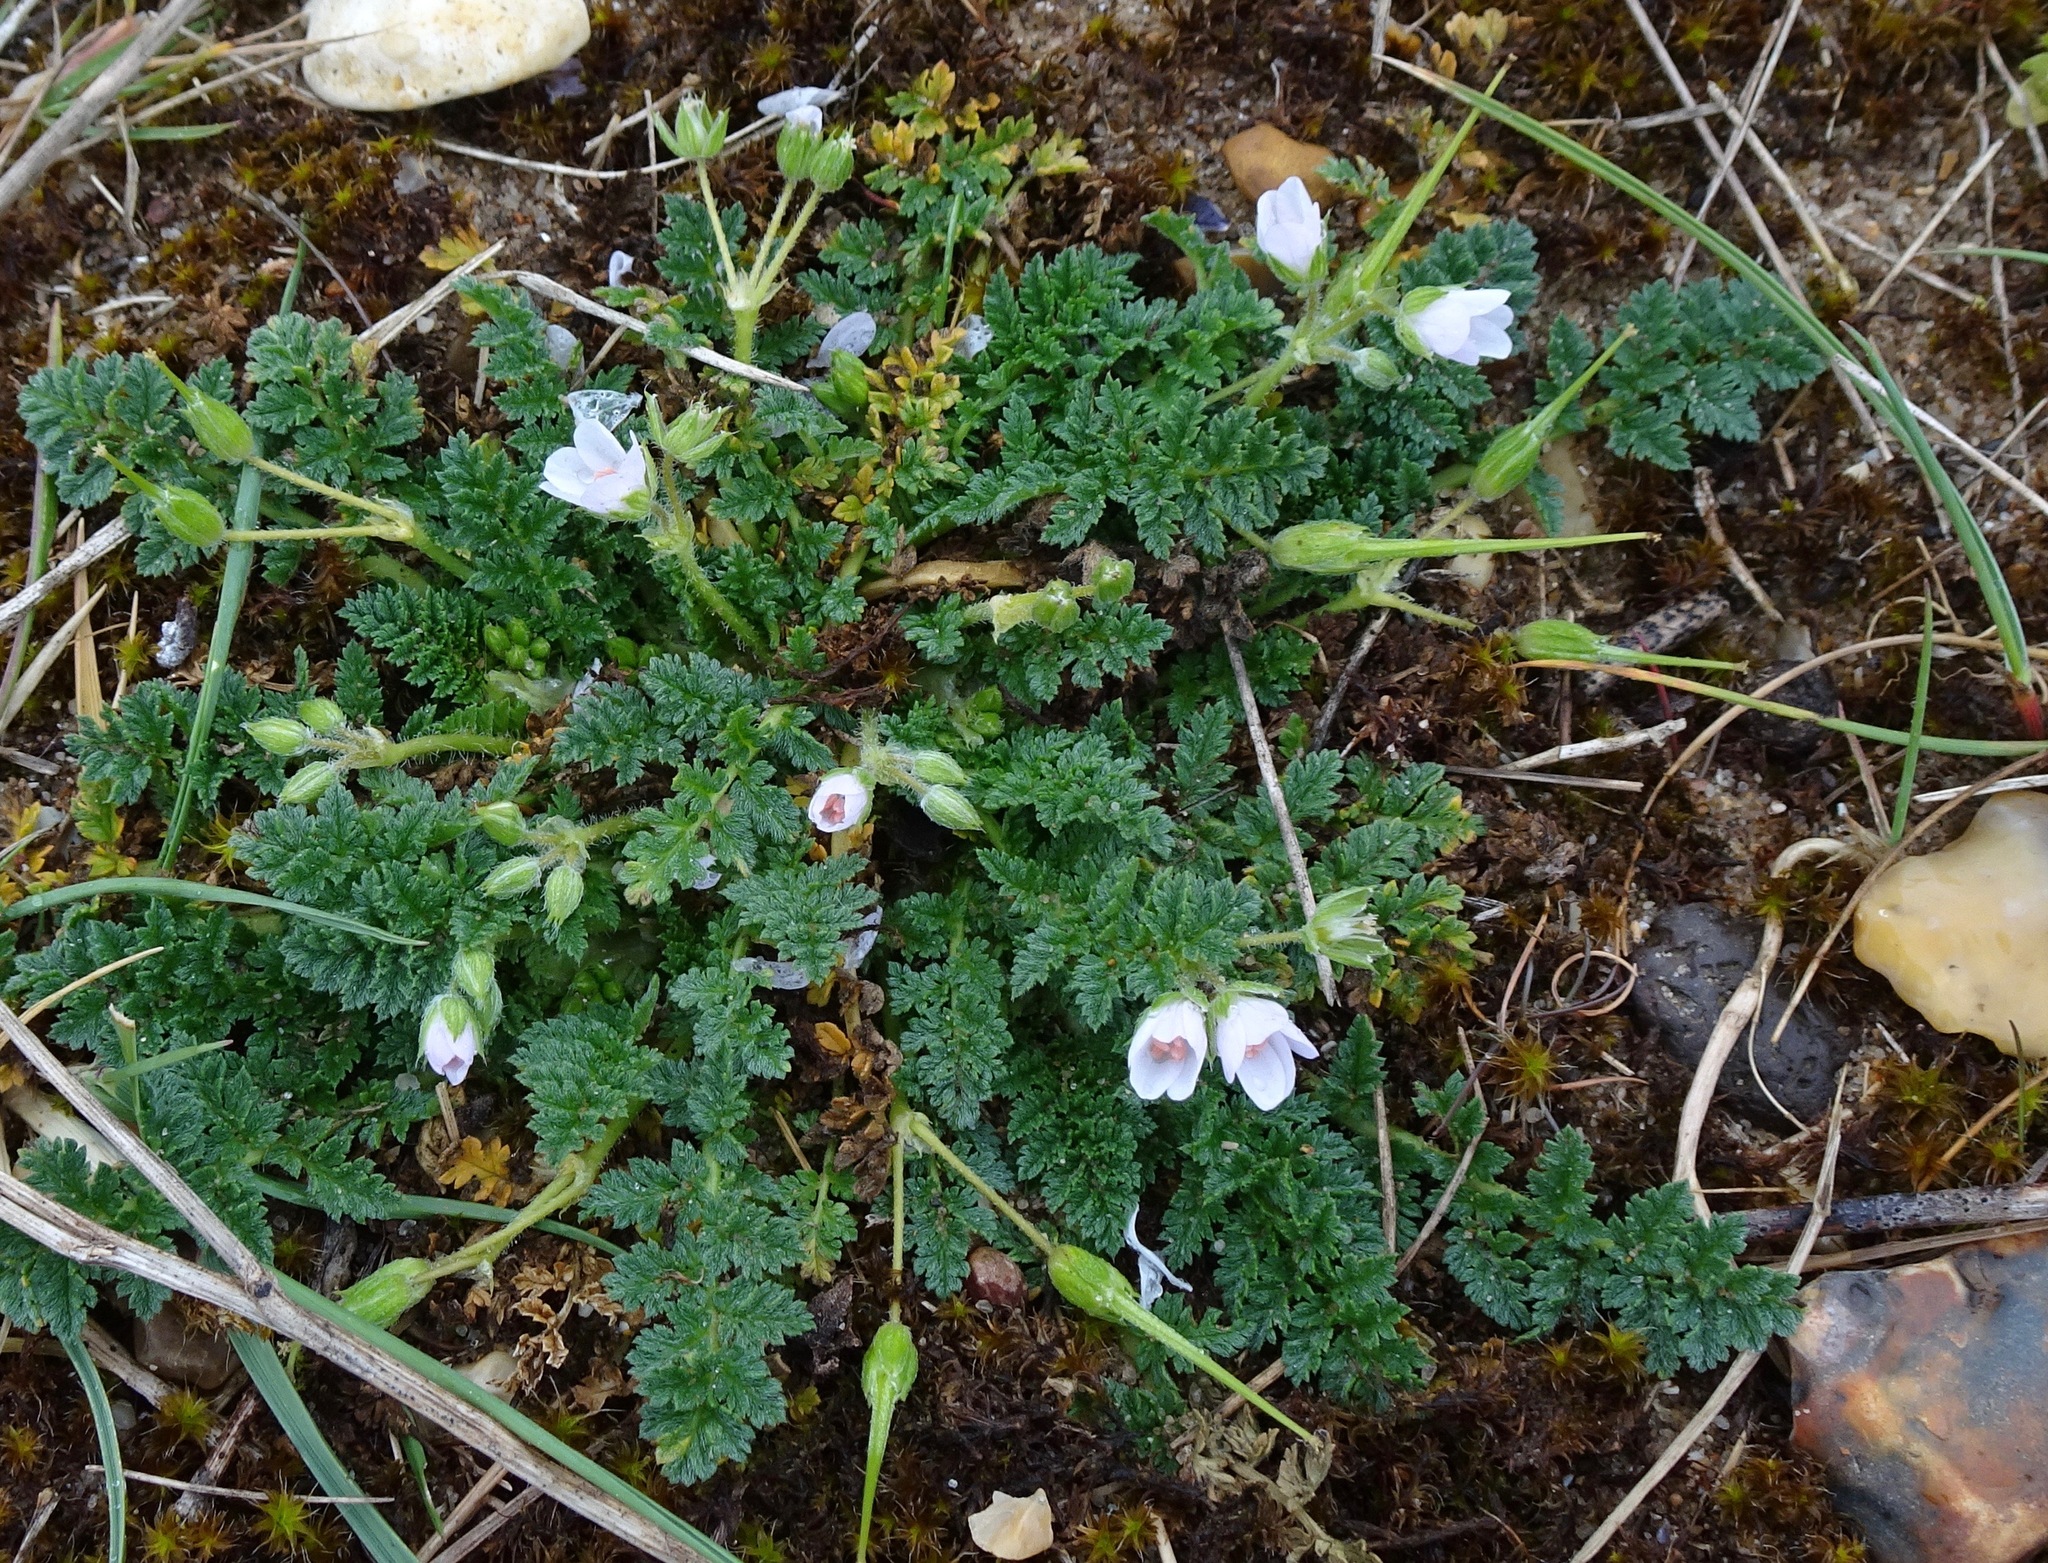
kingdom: Plantae
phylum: Tracheophyta
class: Magnoliopsida
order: Geraniales
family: Geraniaceae
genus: Erodium
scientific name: Erodium cicutarium
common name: Common stork's-bill
